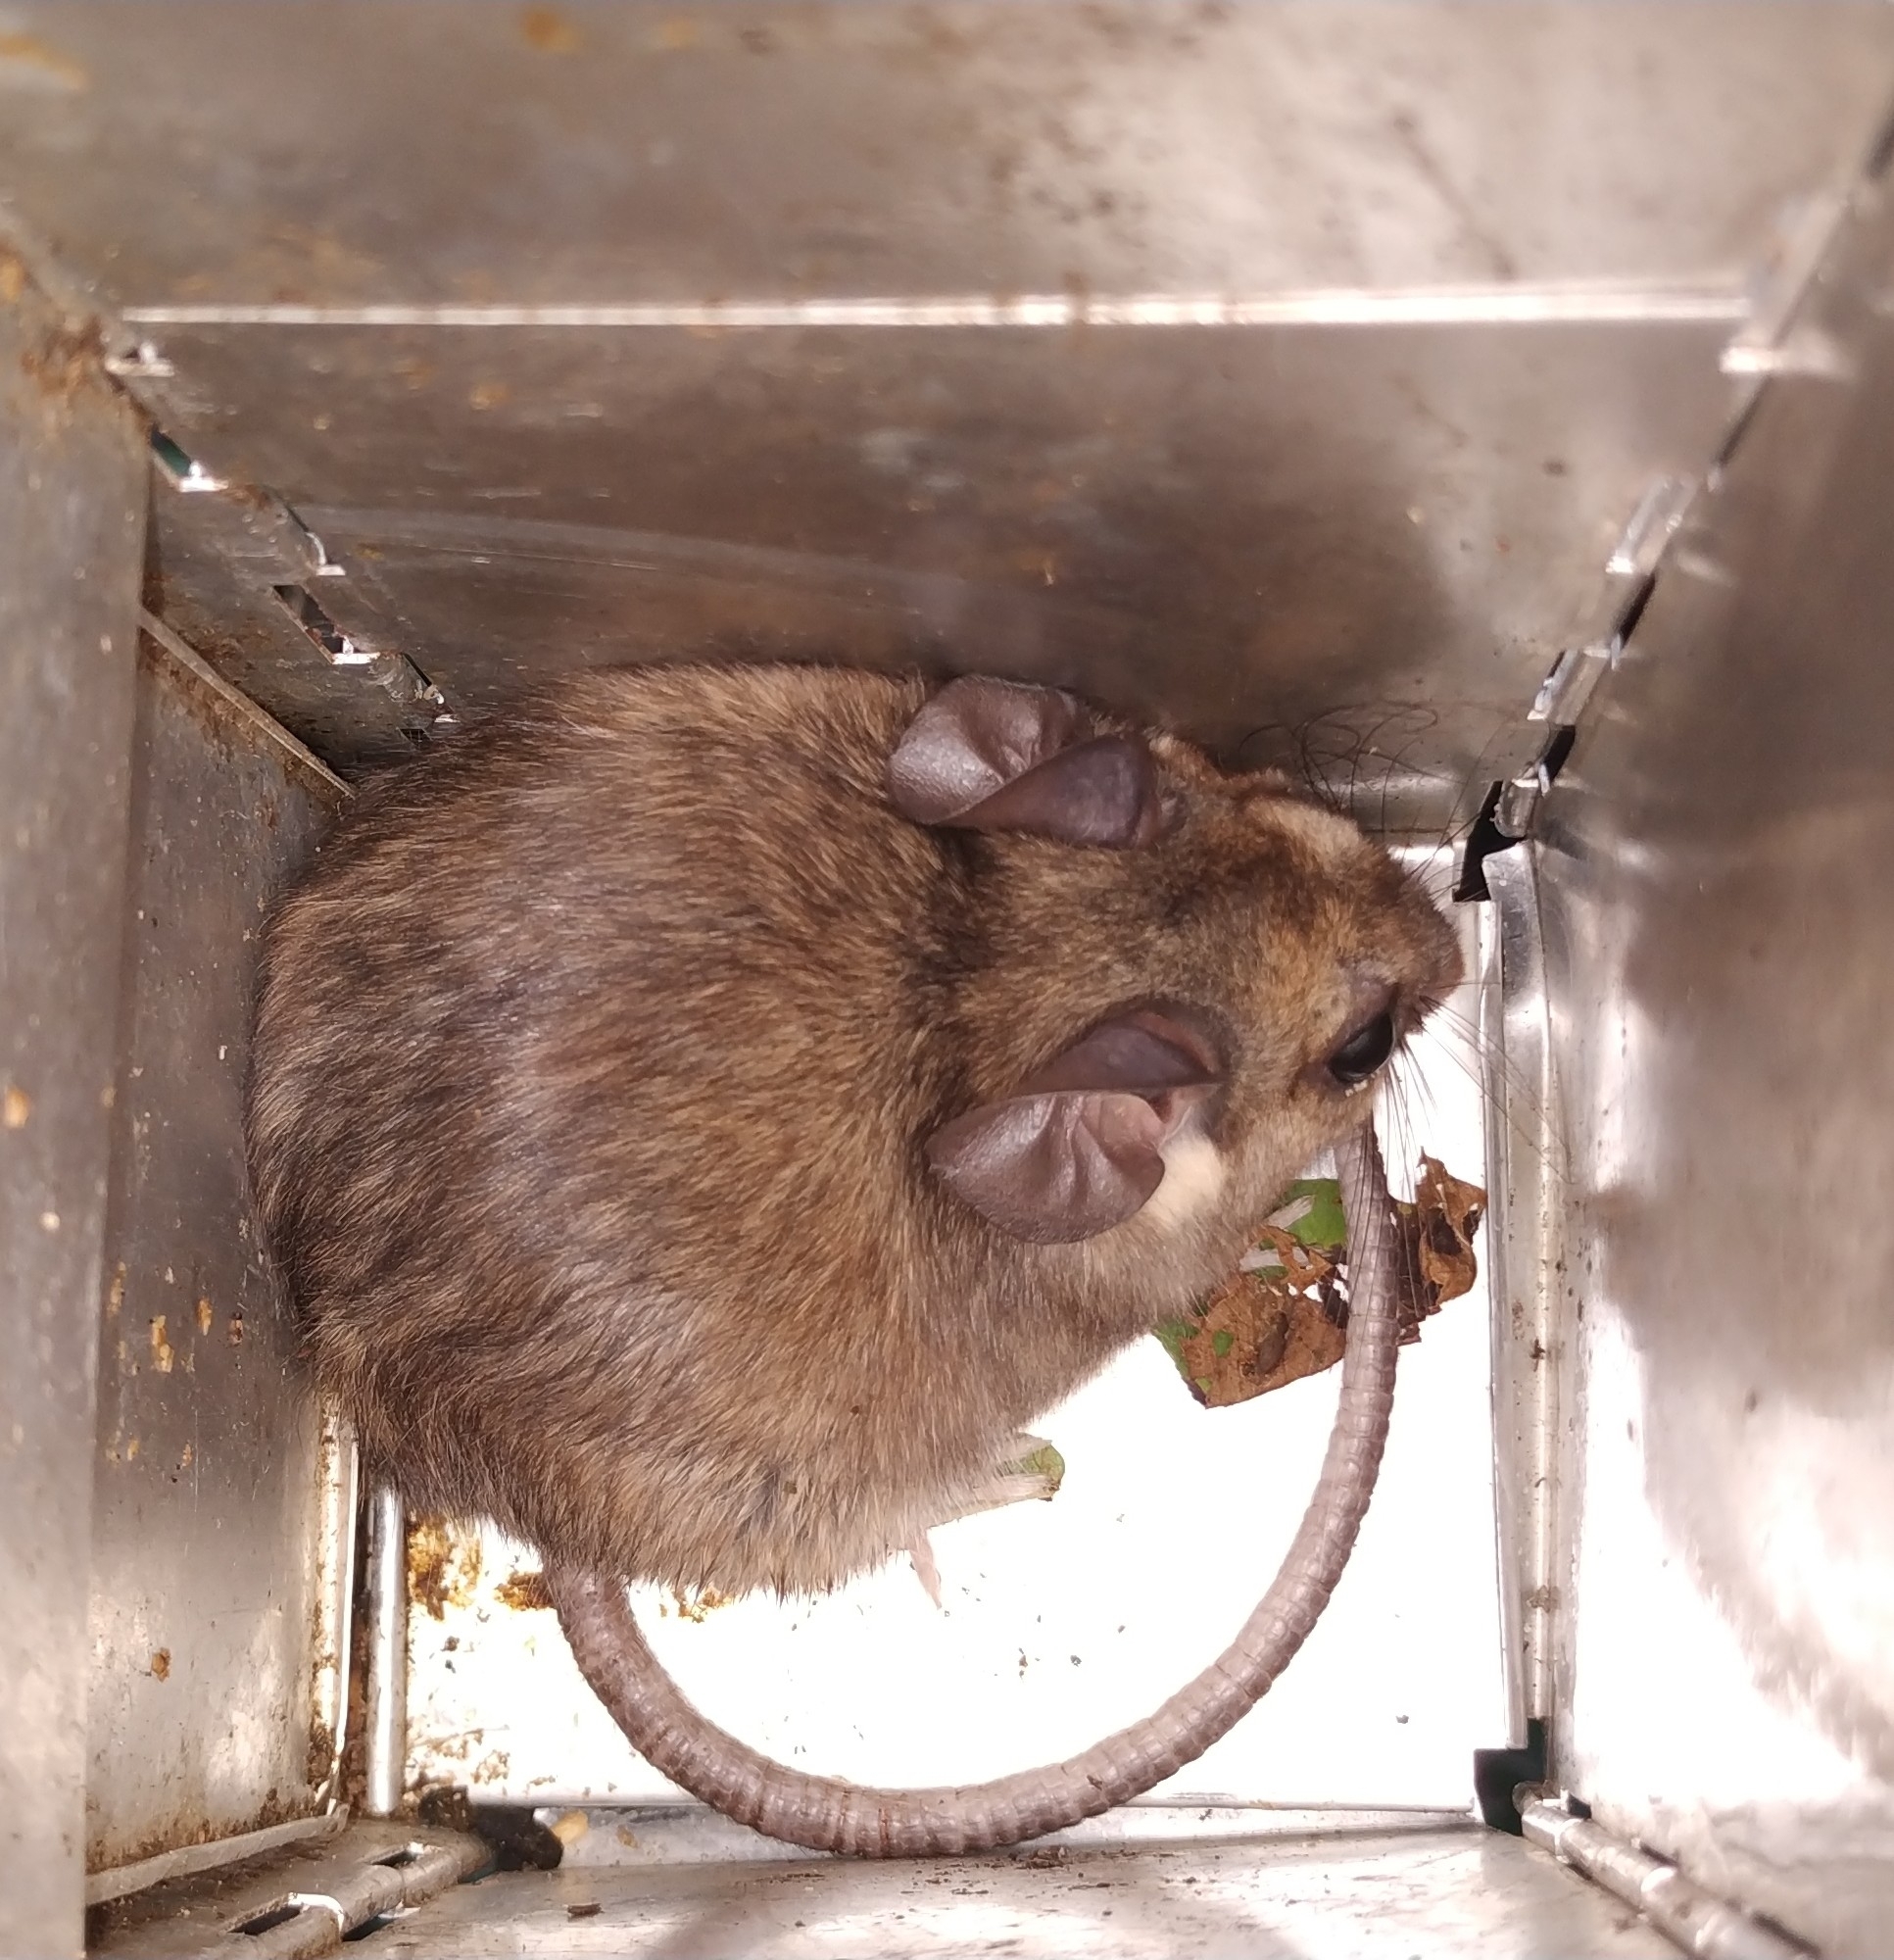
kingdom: Animalia
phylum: Chordata
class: Mammalia
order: Rodentia
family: Cricetidae
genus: Ototylomys
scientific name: Ototylomys phyllotis
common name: Big-eared climbing rat
